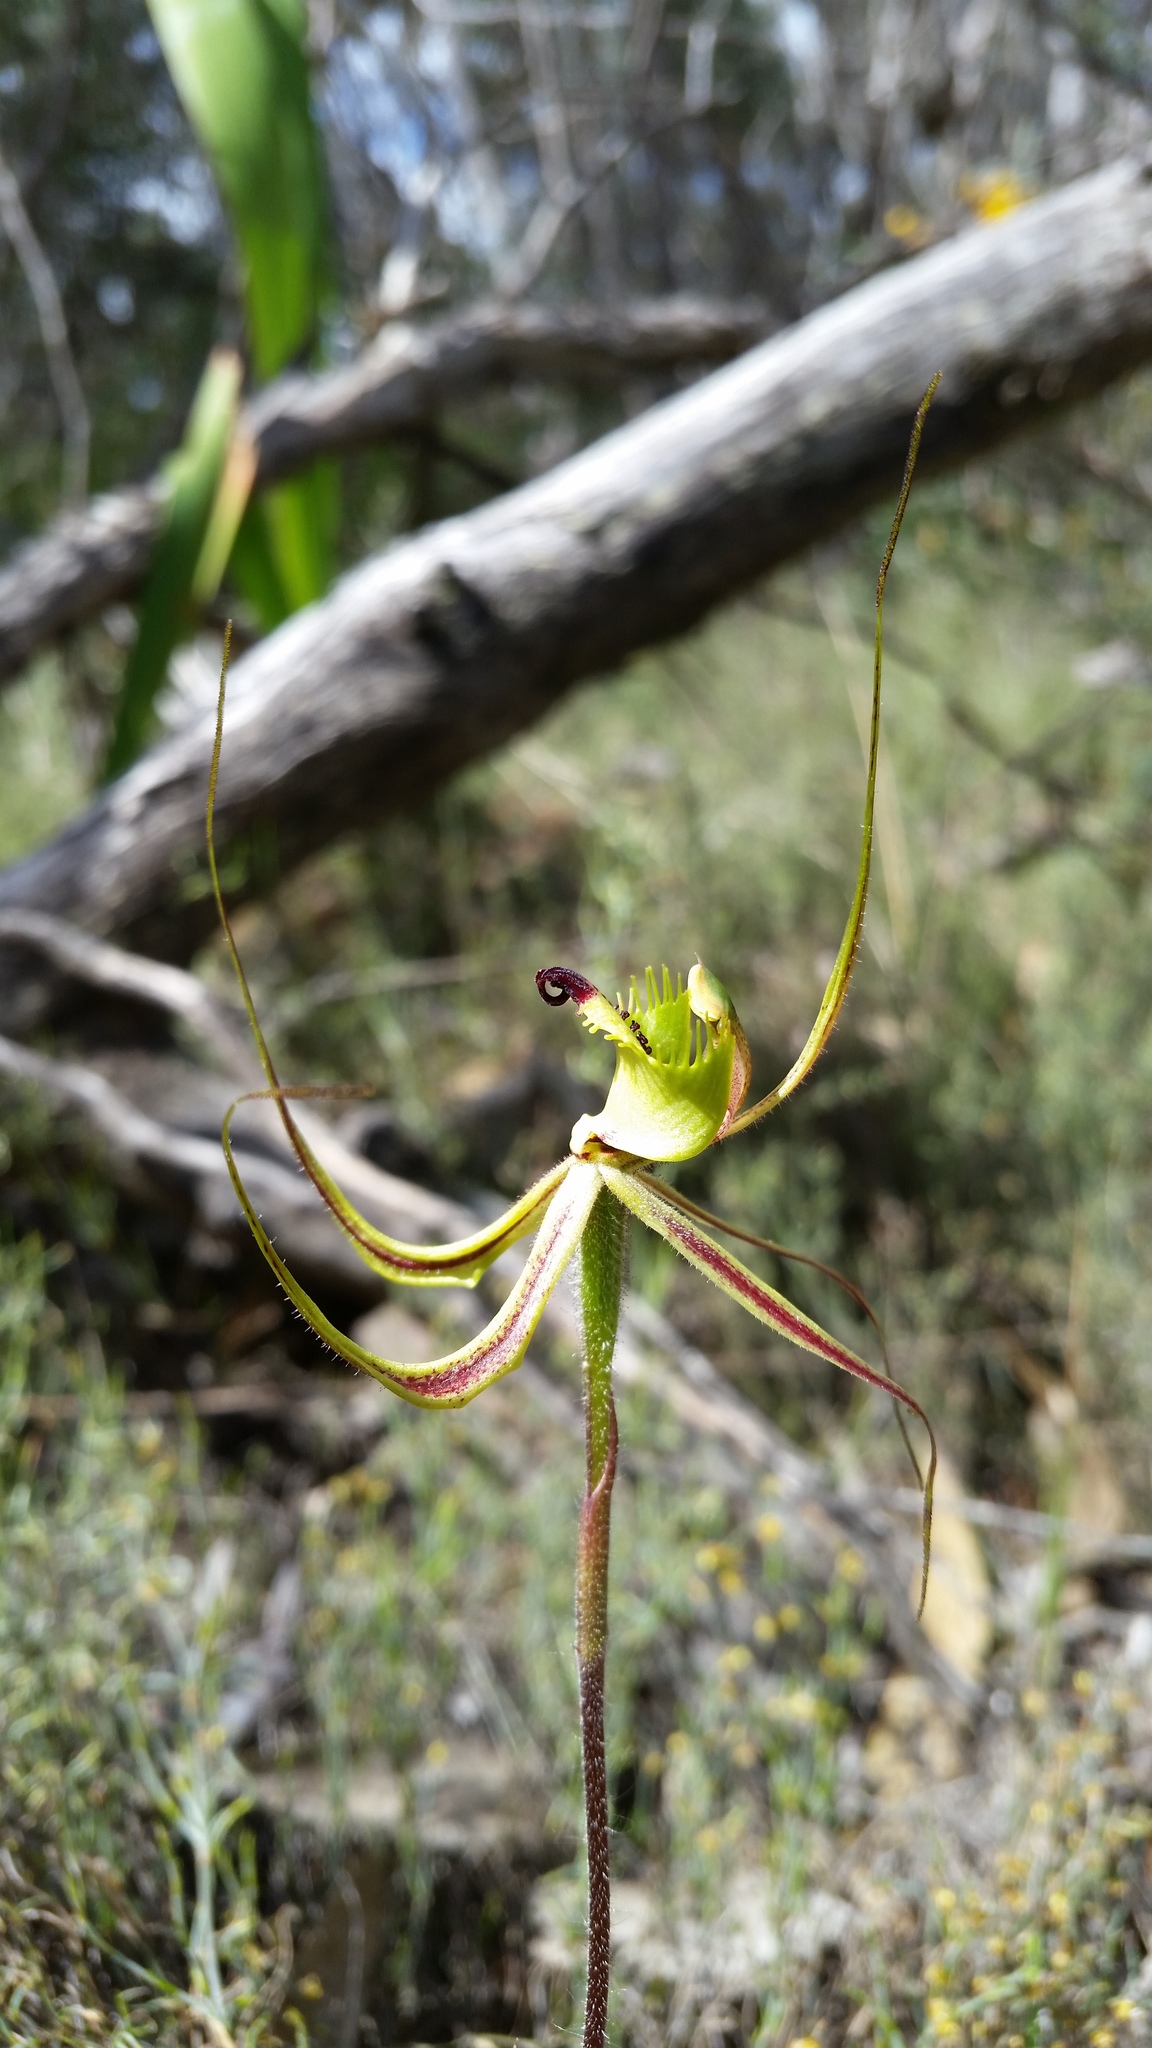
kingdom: Plantae
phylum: Tracheophyta
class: Liliopsida
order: Asparagales
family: Orchidaceae
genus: Caladenia
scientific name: Caladenia falcata
